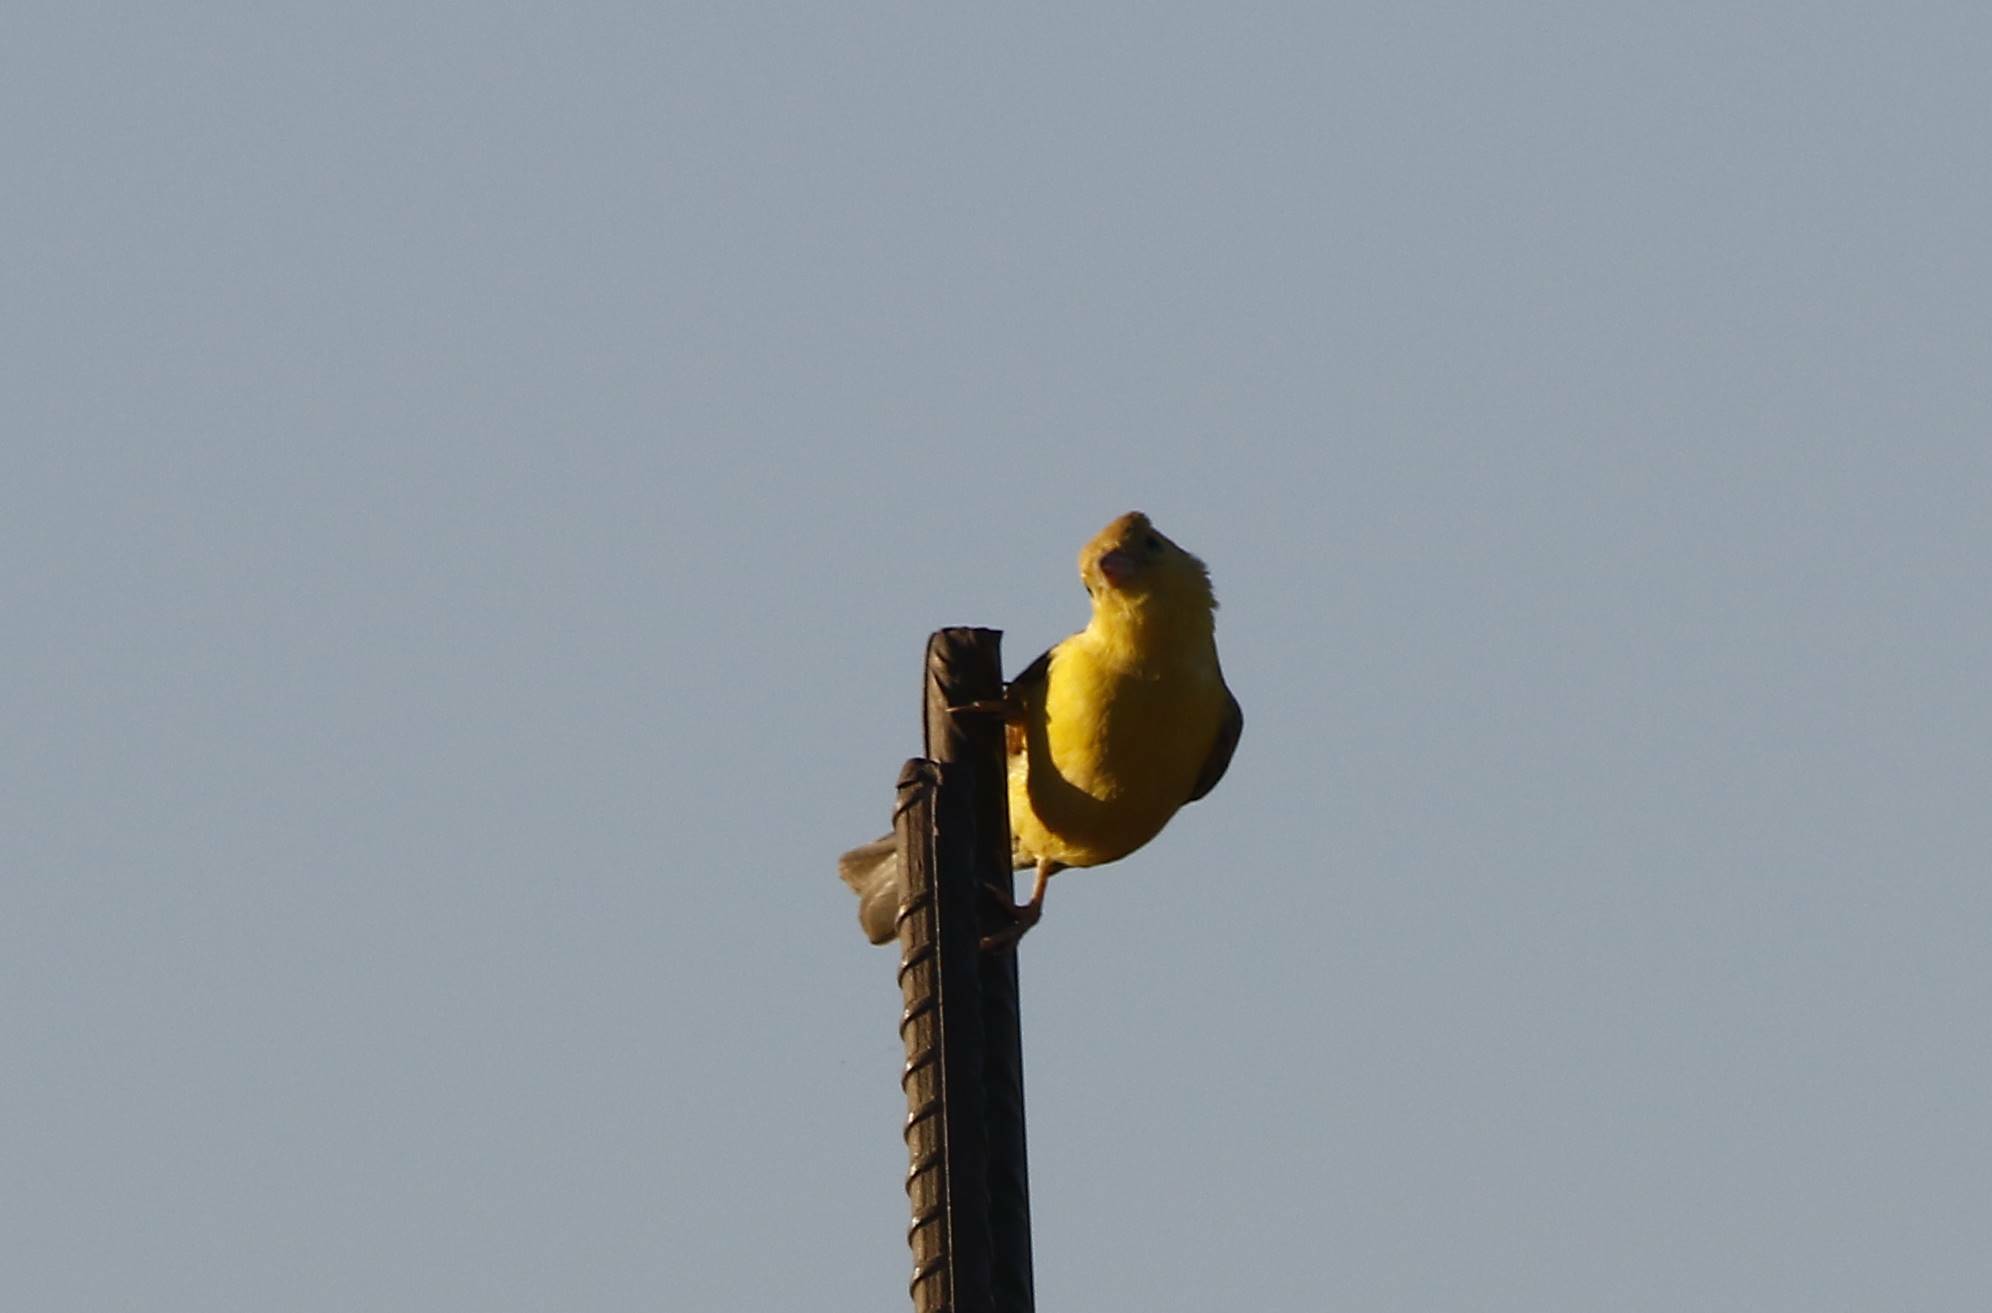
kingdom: Animalia
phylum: Chordata
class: Aves
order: Passeriformes
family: Passeridae
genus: Passer
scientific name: Passer luteus
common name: Sudan golden sparrow
